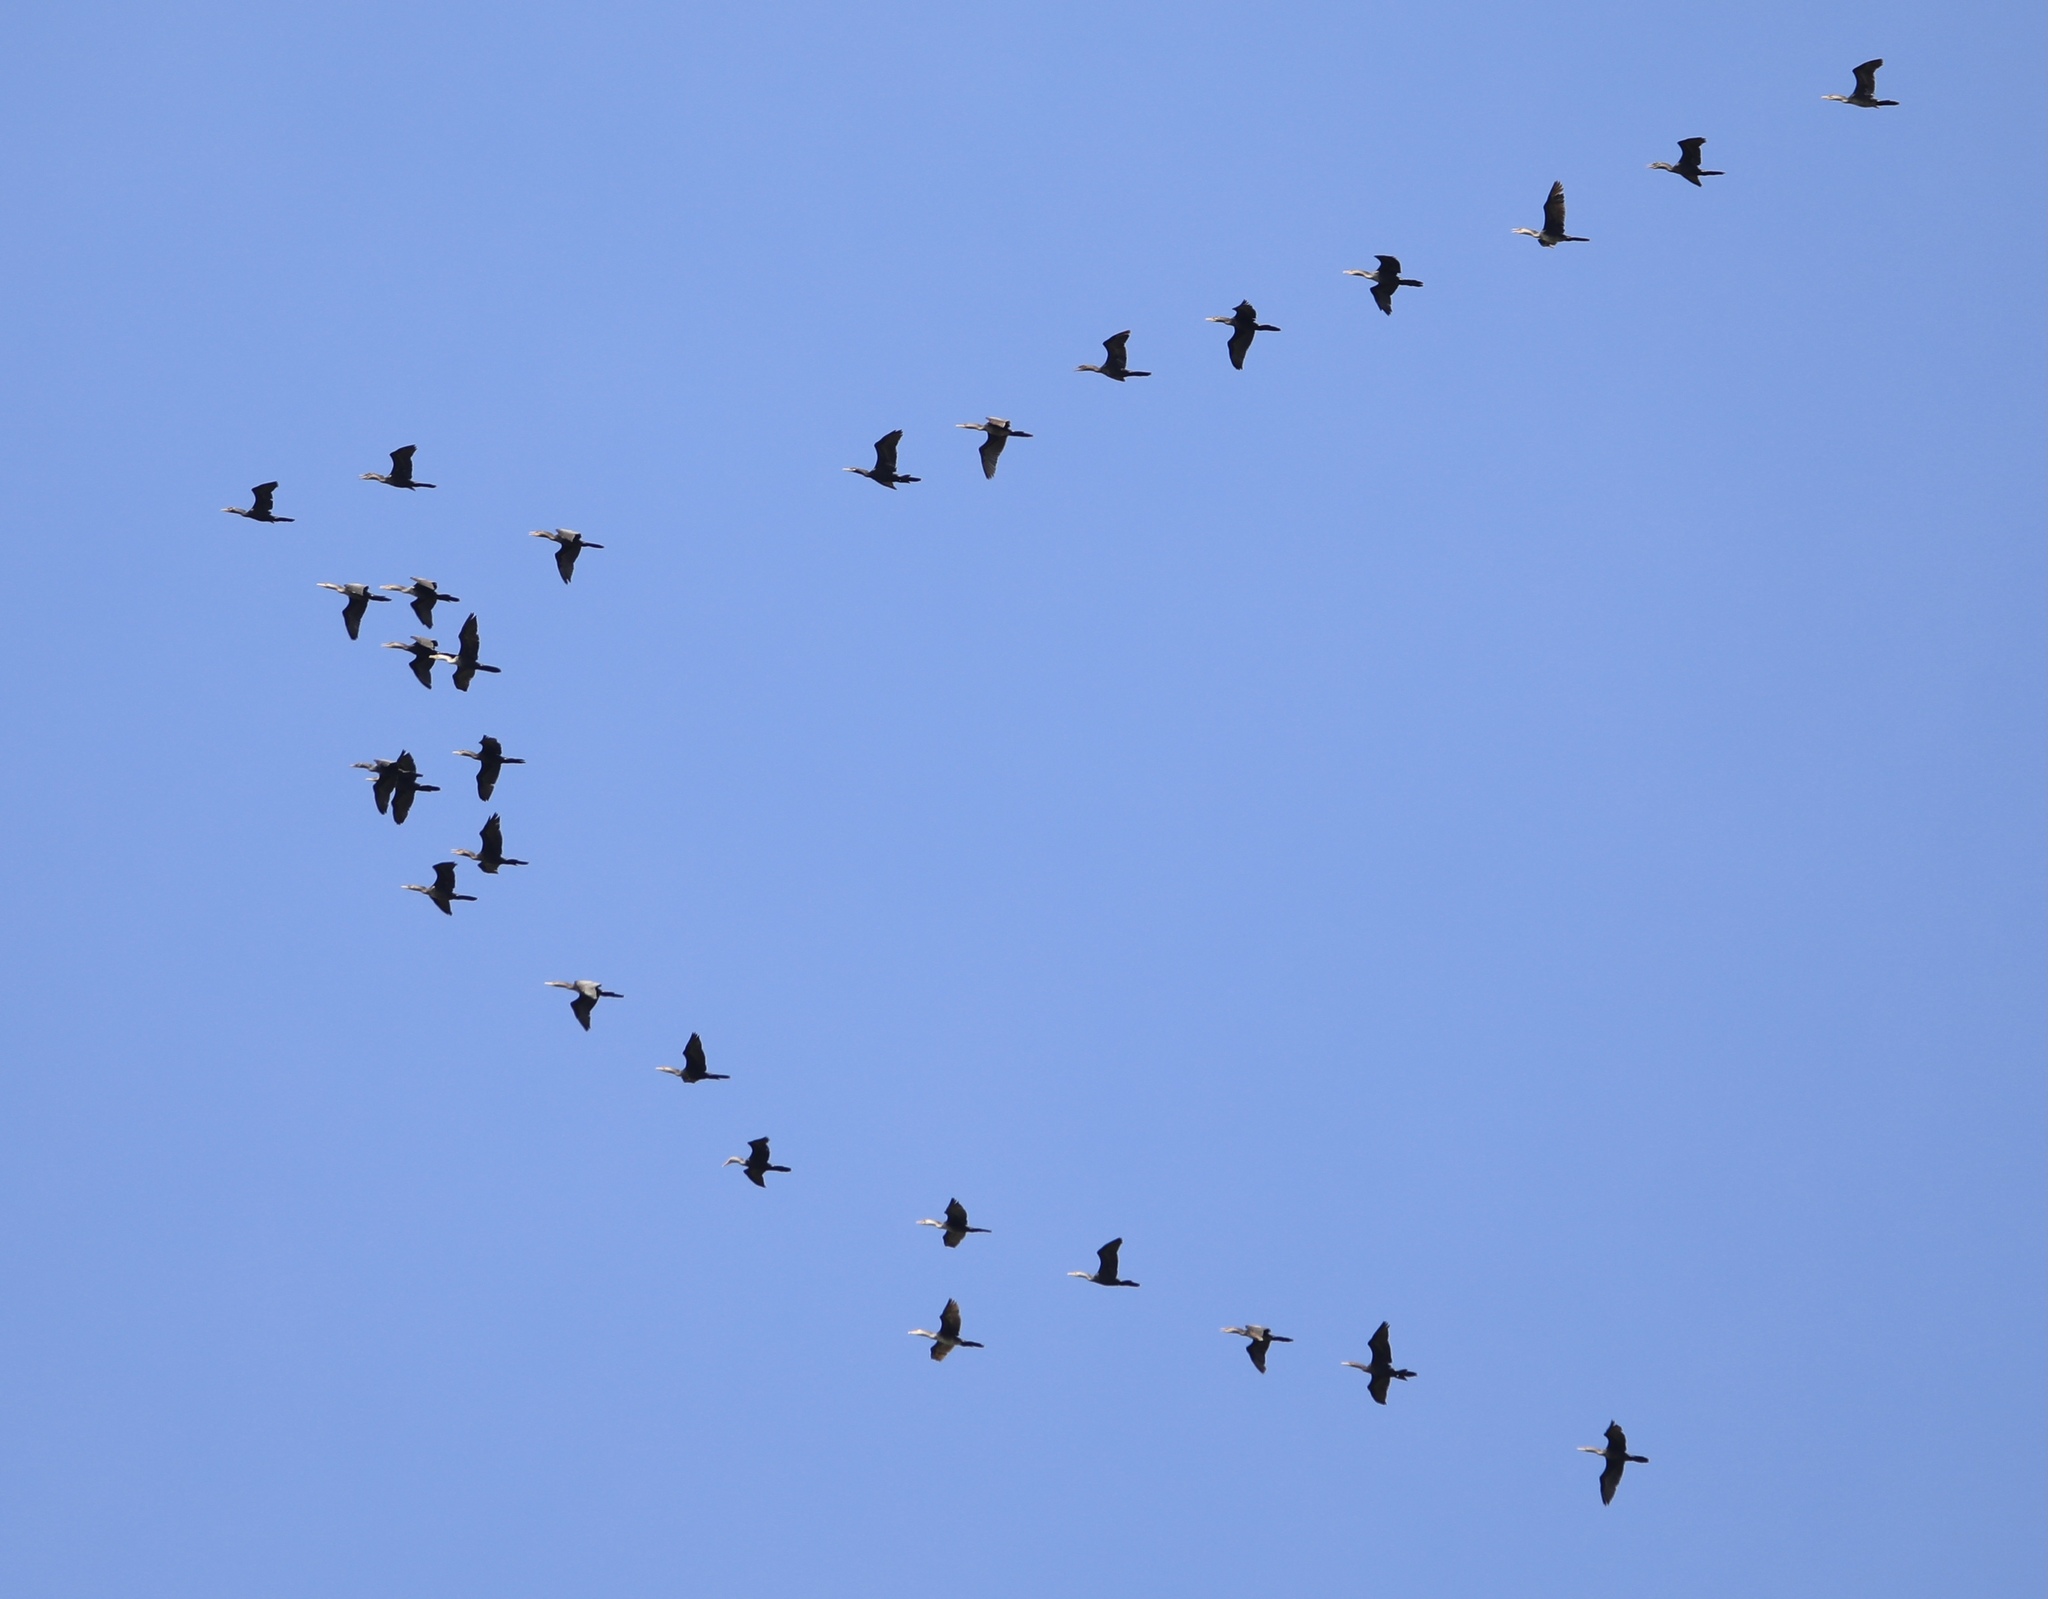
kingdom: Animalia
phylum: Chordata
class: Aves
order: Suliformes
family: Phalacrocoracidae
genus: Phalacrocorax
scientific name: Phalacrocorax brasilianus
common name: Neotropic cormorant
